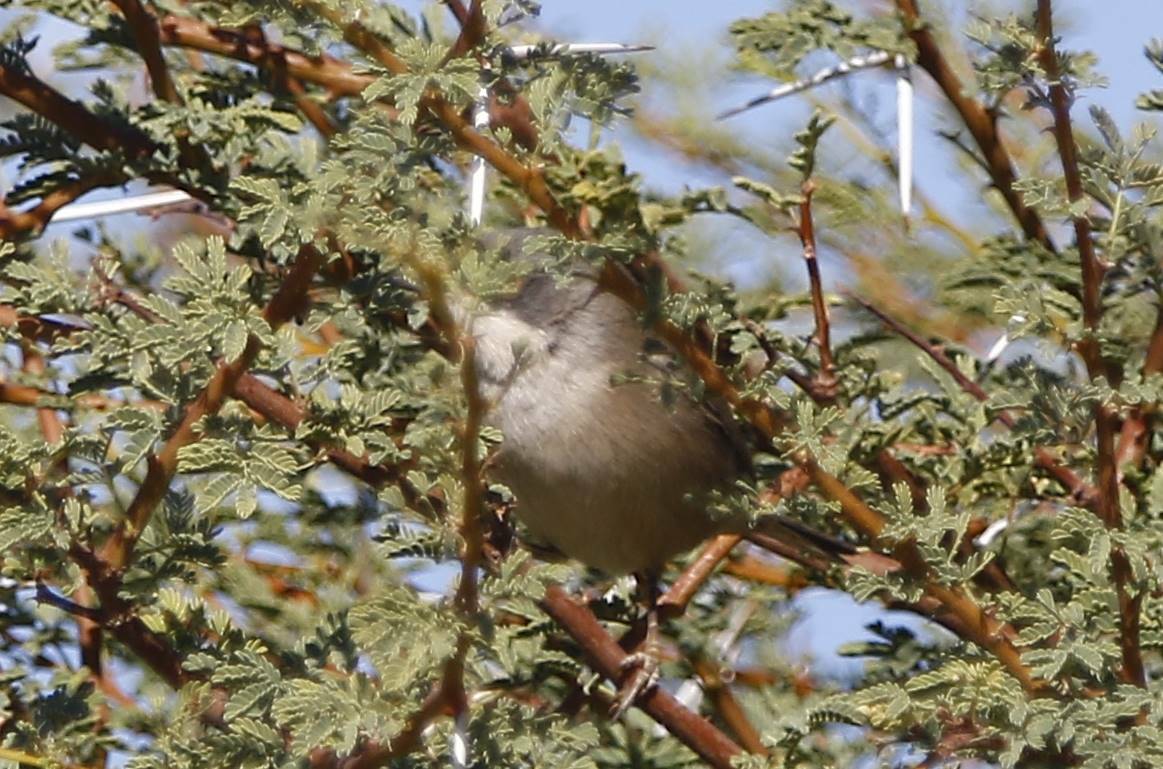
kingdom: Animalia
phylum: Chordata
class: Aves
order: Passeriformes
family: Sylviidae
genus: Curruca
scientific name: Curruca melanocephala
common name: Sardinian warbler
